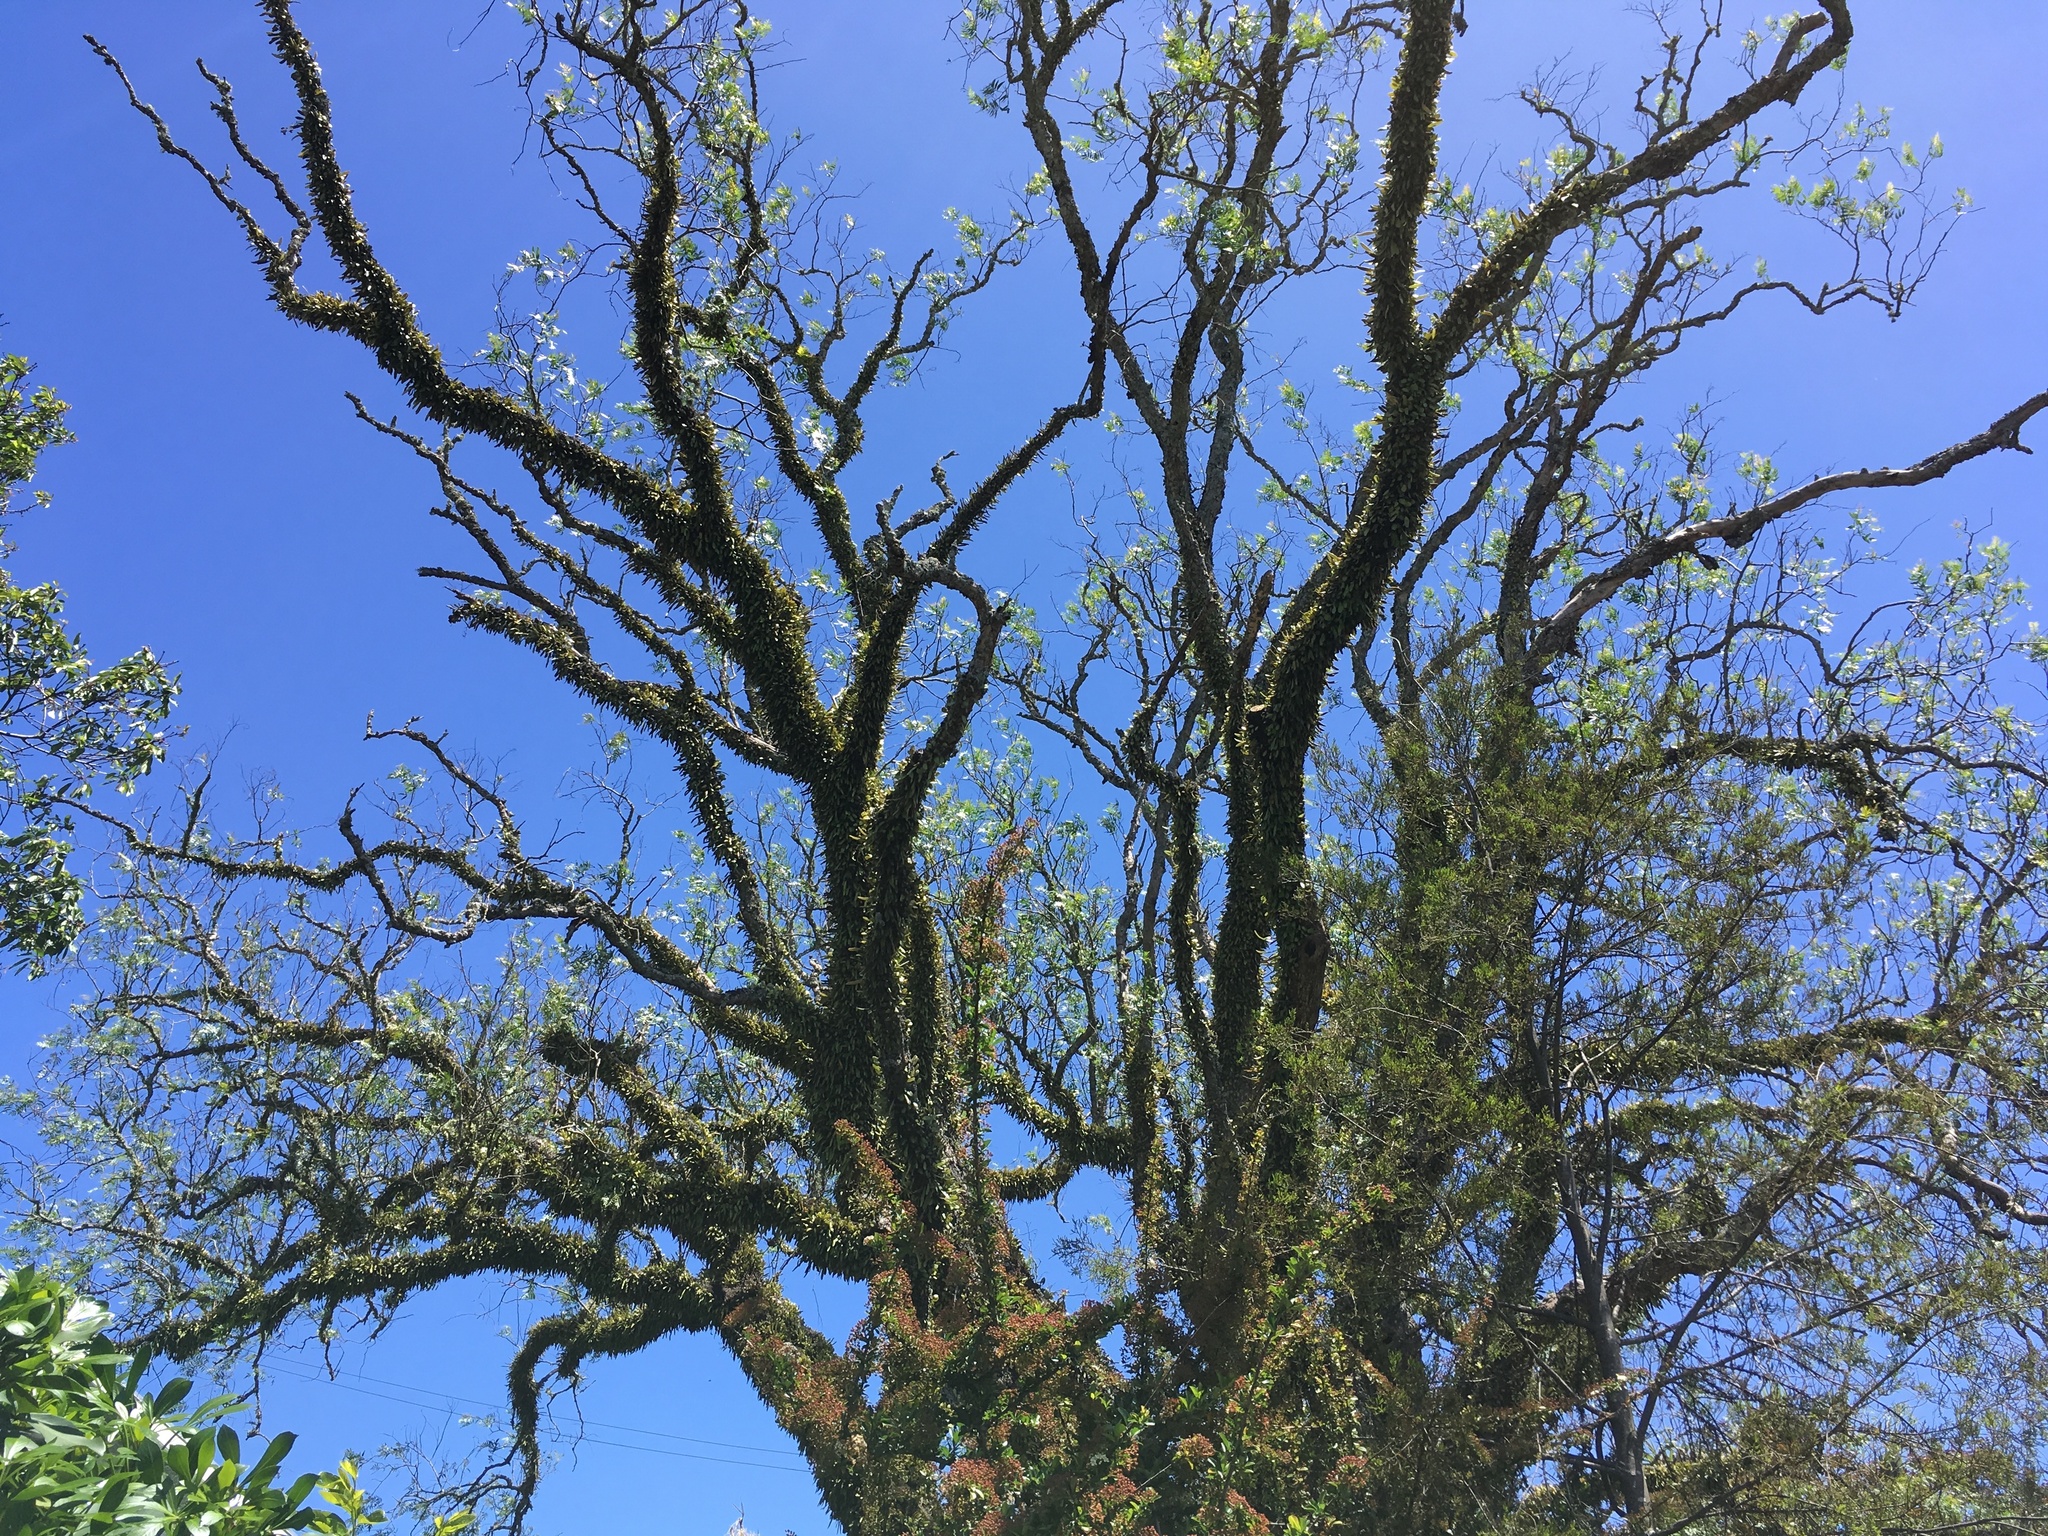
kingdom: Plantae
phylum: Tracheophyta
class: Polypodiopsida
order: Polypodiales
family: Polypodiaceae
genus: Pyrrosia
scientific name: Pyrrosia eleagnifolia
